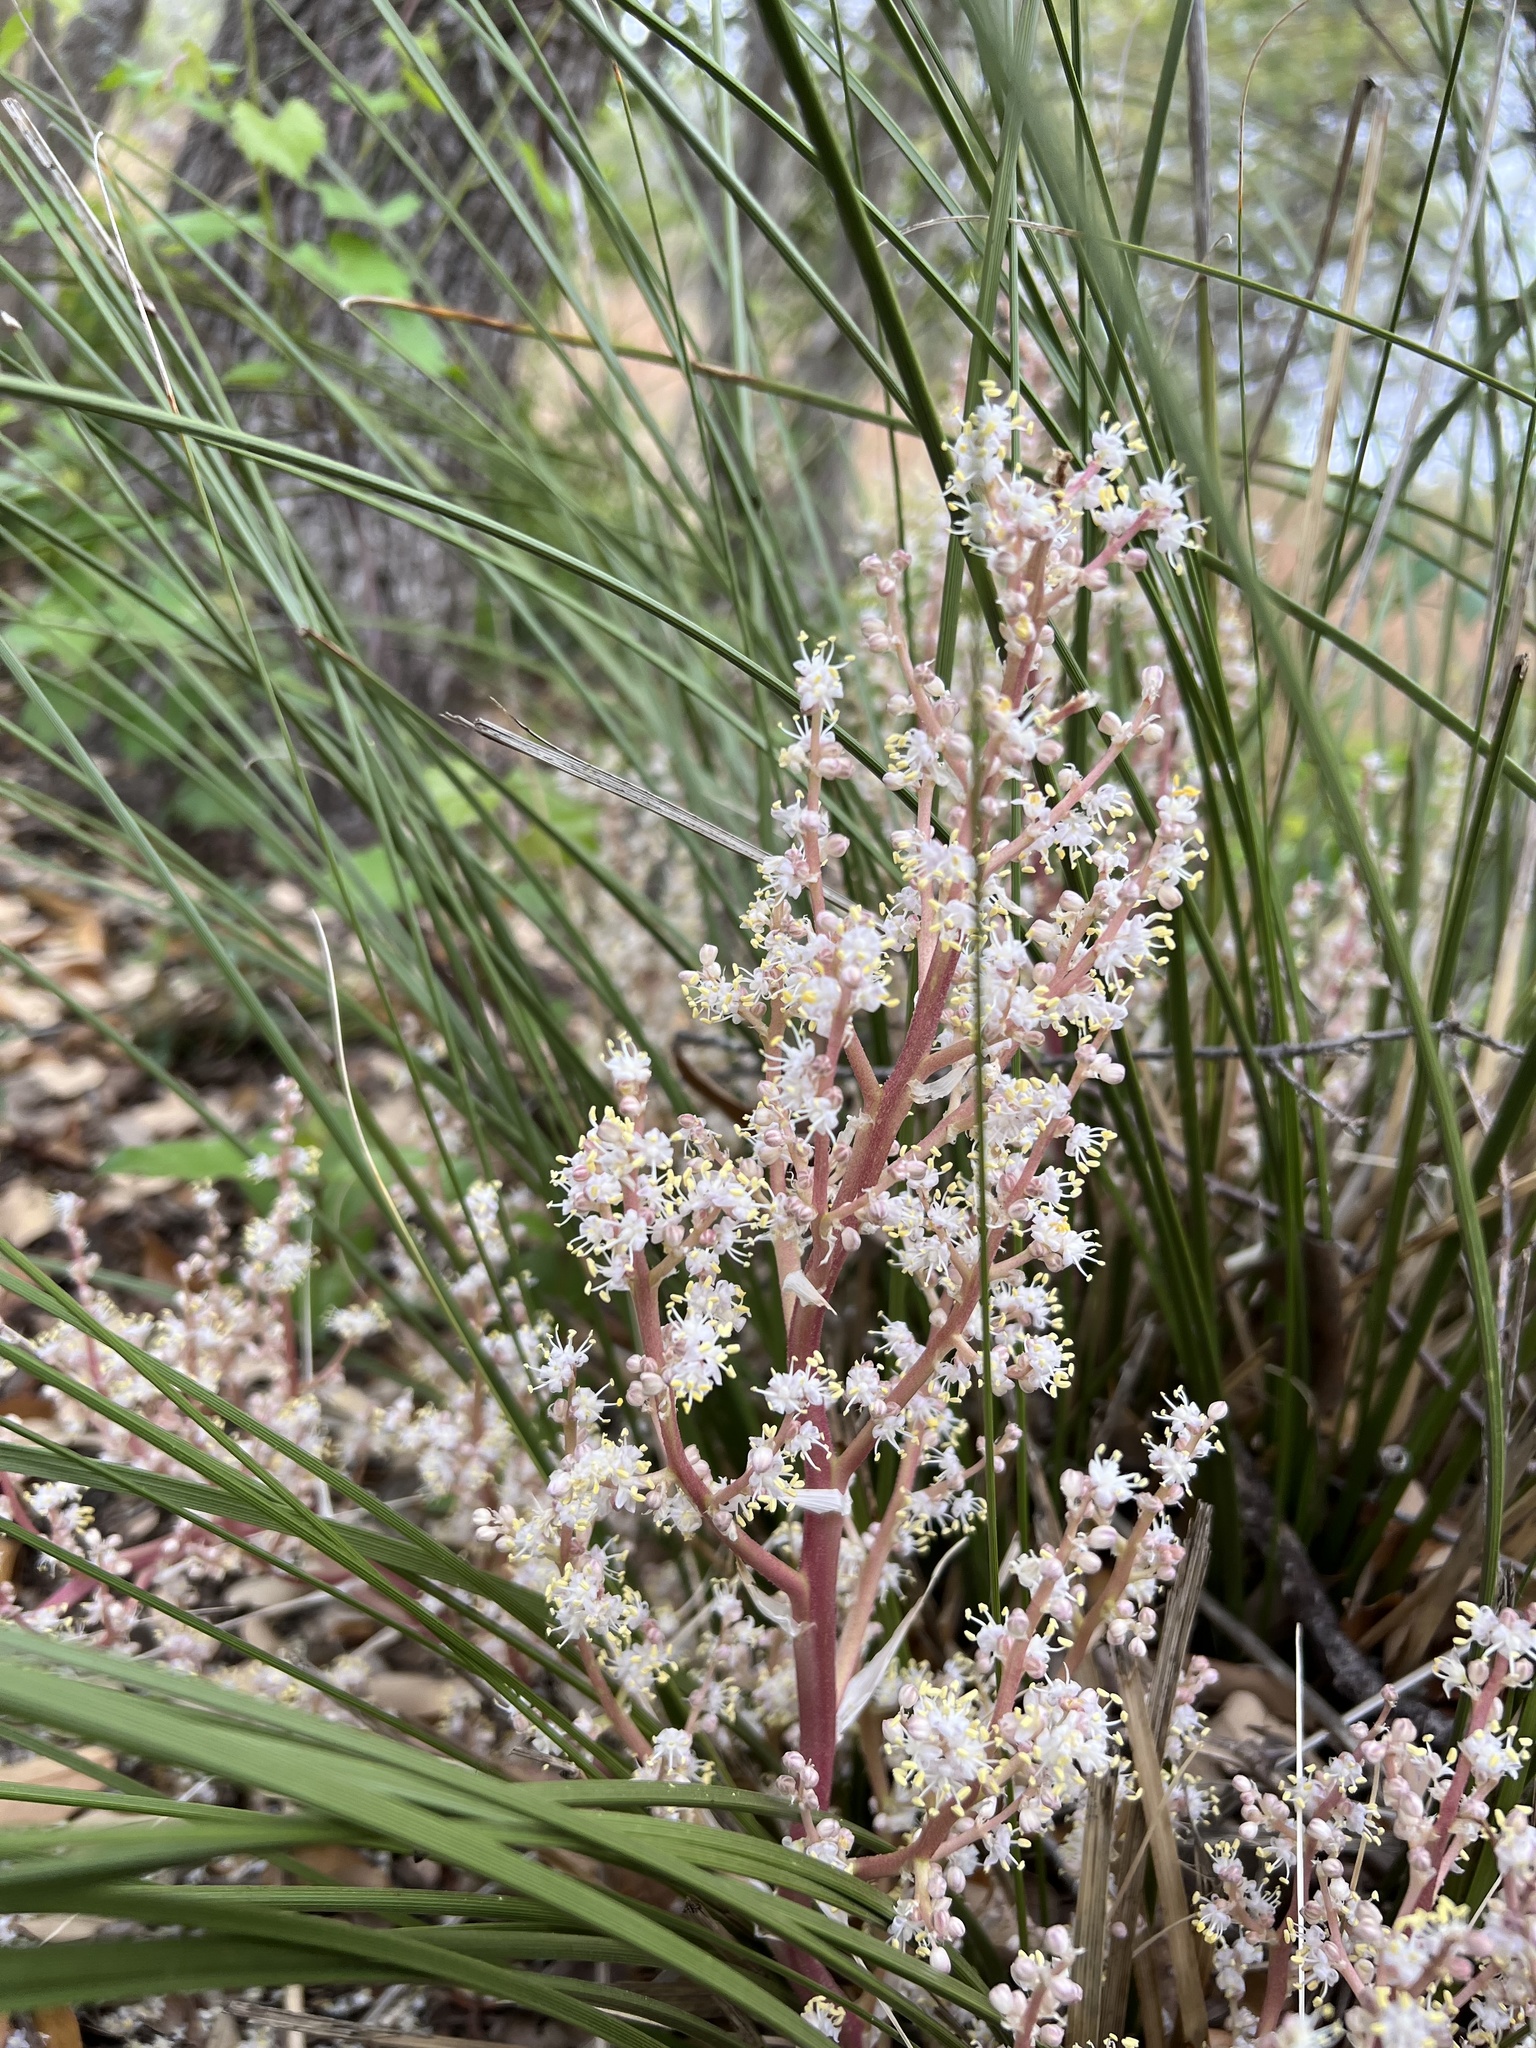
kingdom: Plantae
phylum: Tracheophyta
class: Liliopsida
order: Asparagales
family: Asparagaceae
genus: Nolina
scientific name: Nolina texana
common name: Texas sacahuiste
